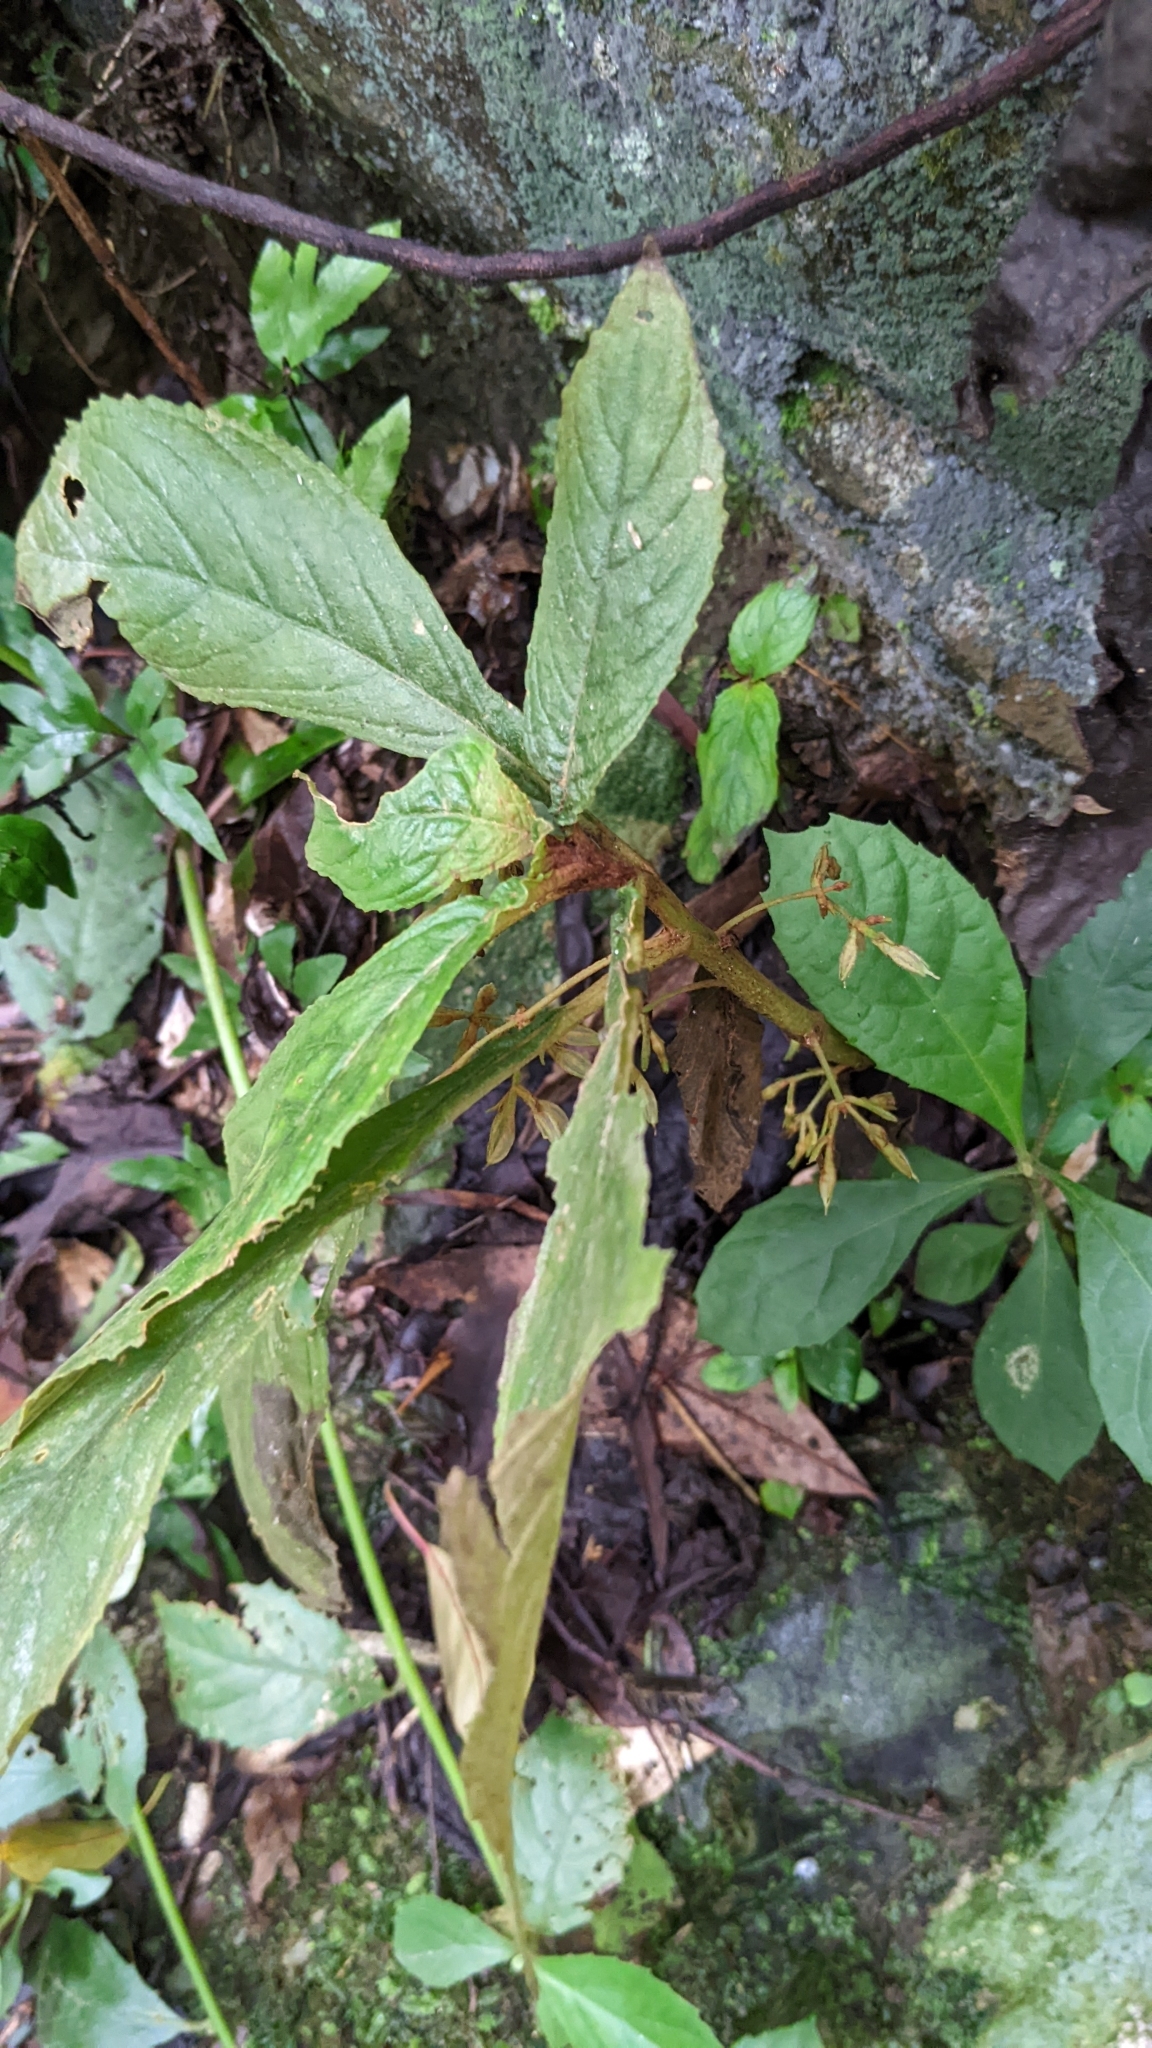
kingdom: Plantae
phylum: Tracheophyta
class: Magnoliopsida
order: Lamiales
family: Gesneriaceae
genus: Rhynchotechum
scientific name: Rhynchotechum discolor
